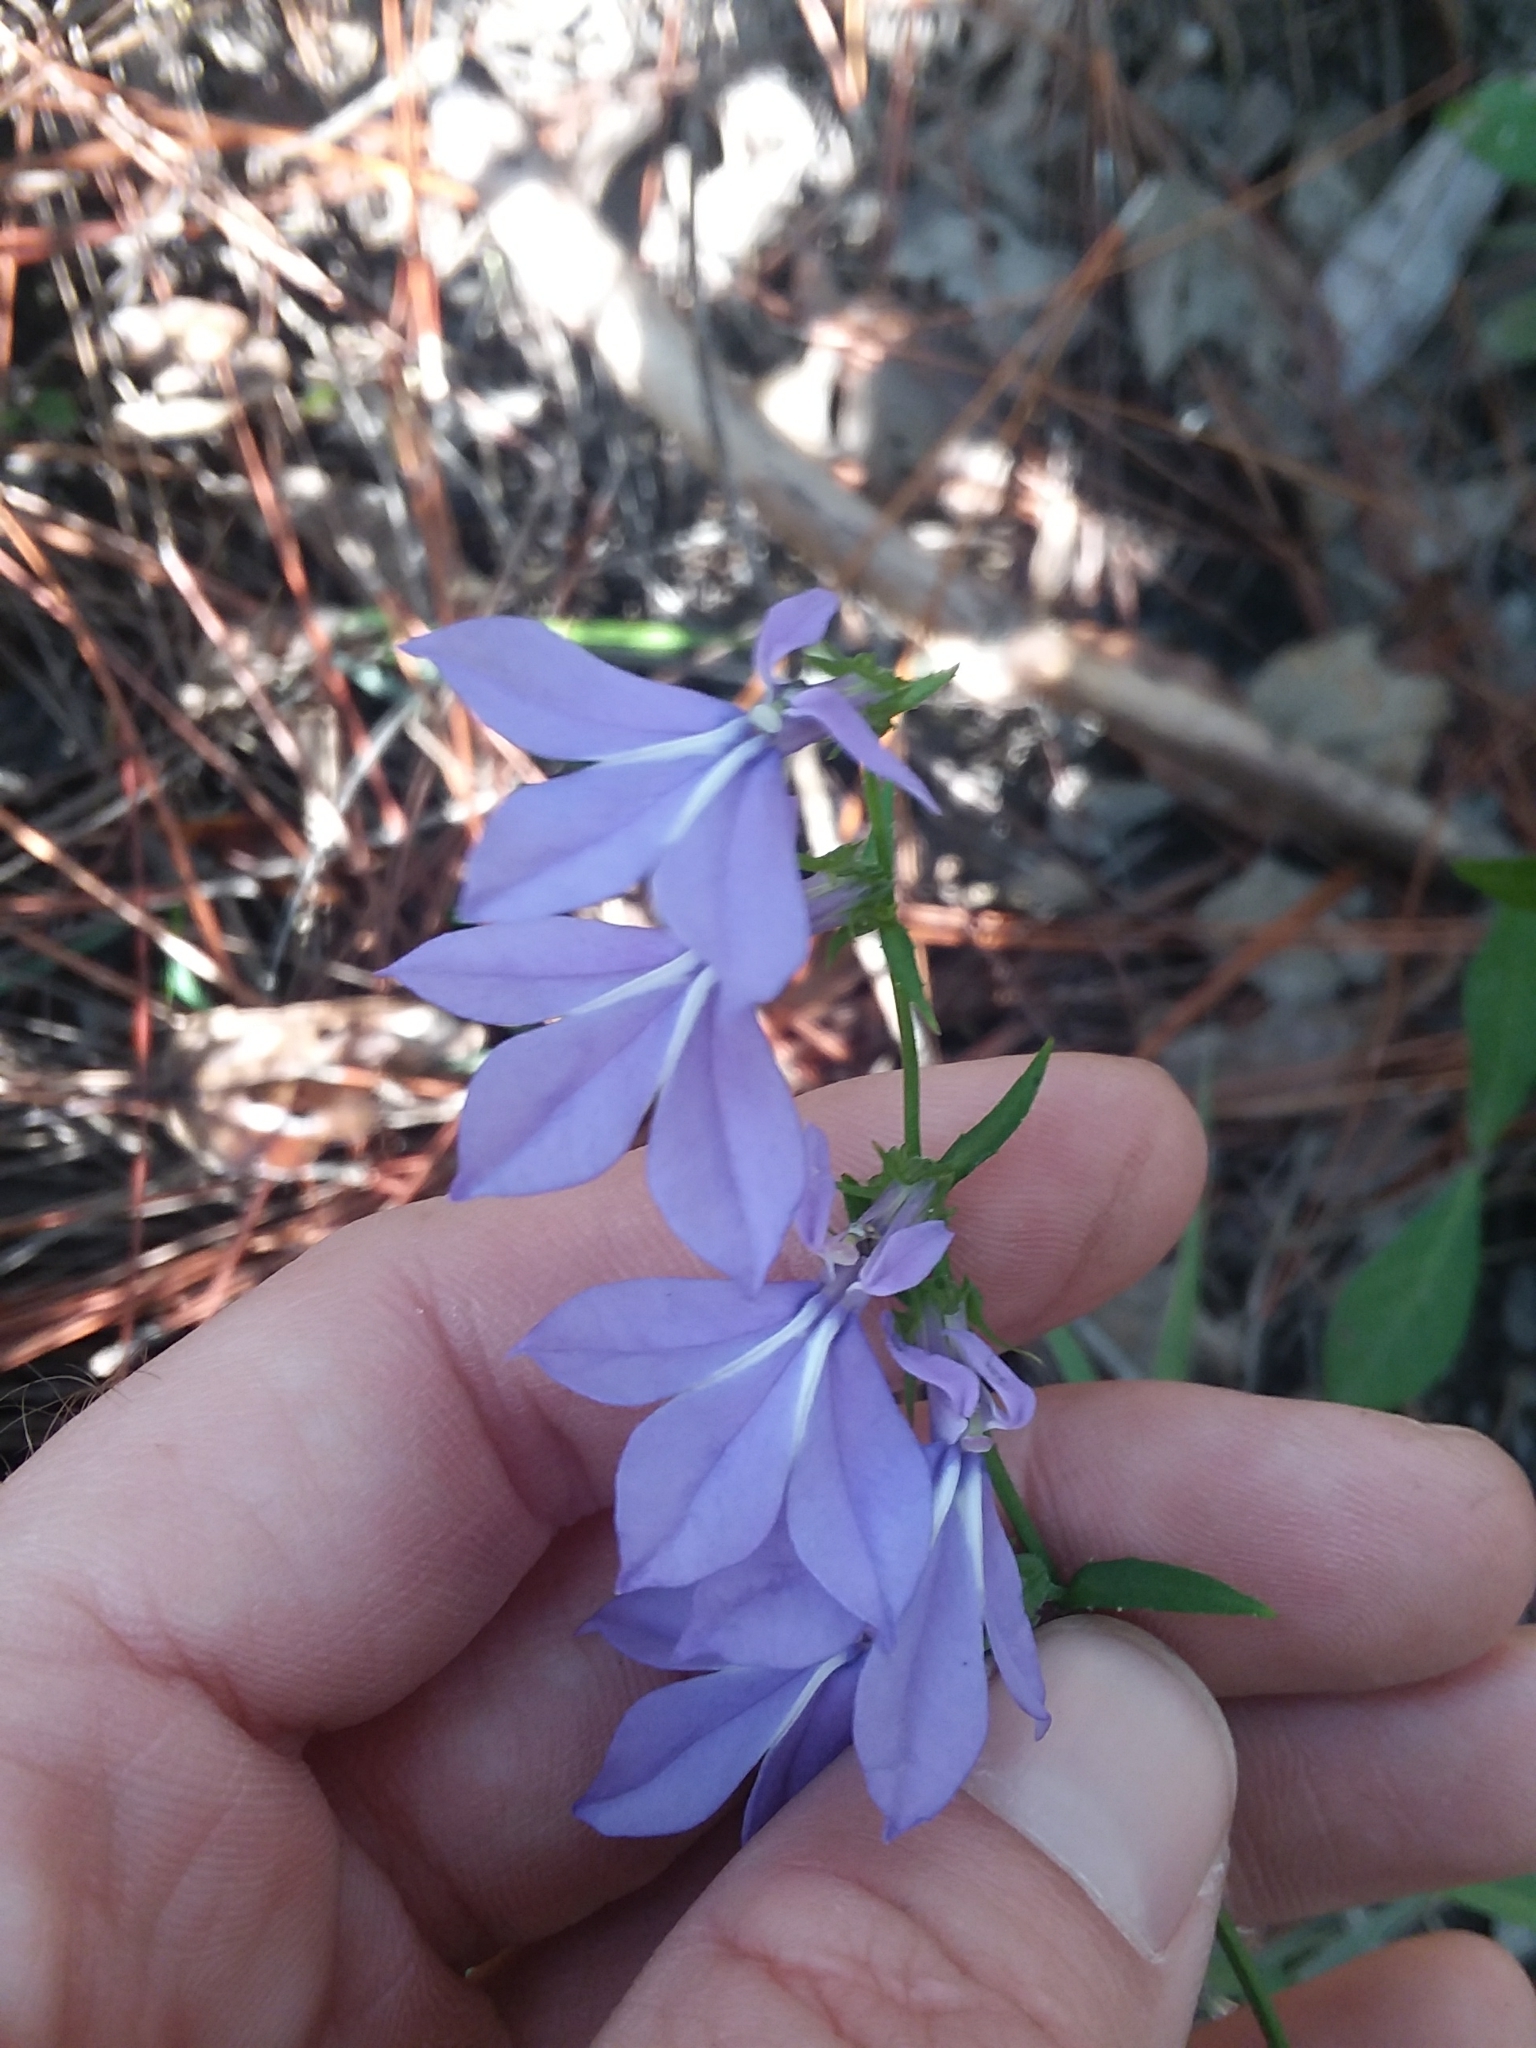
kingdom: Plantae
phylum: Tracheophyta
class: Magnoliopsida
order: Asterales
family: Campanulaceae
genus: Lobelia
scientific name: Lobelia rogersii
